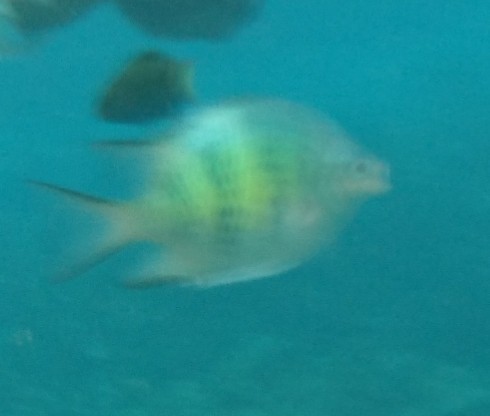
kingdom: Animalia
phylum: Chordata
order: Perciformes
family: Pomacentridae
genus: Amblyglyphidodon
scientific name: Amblyglyphidodon curacao
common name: Staghorn damsel
